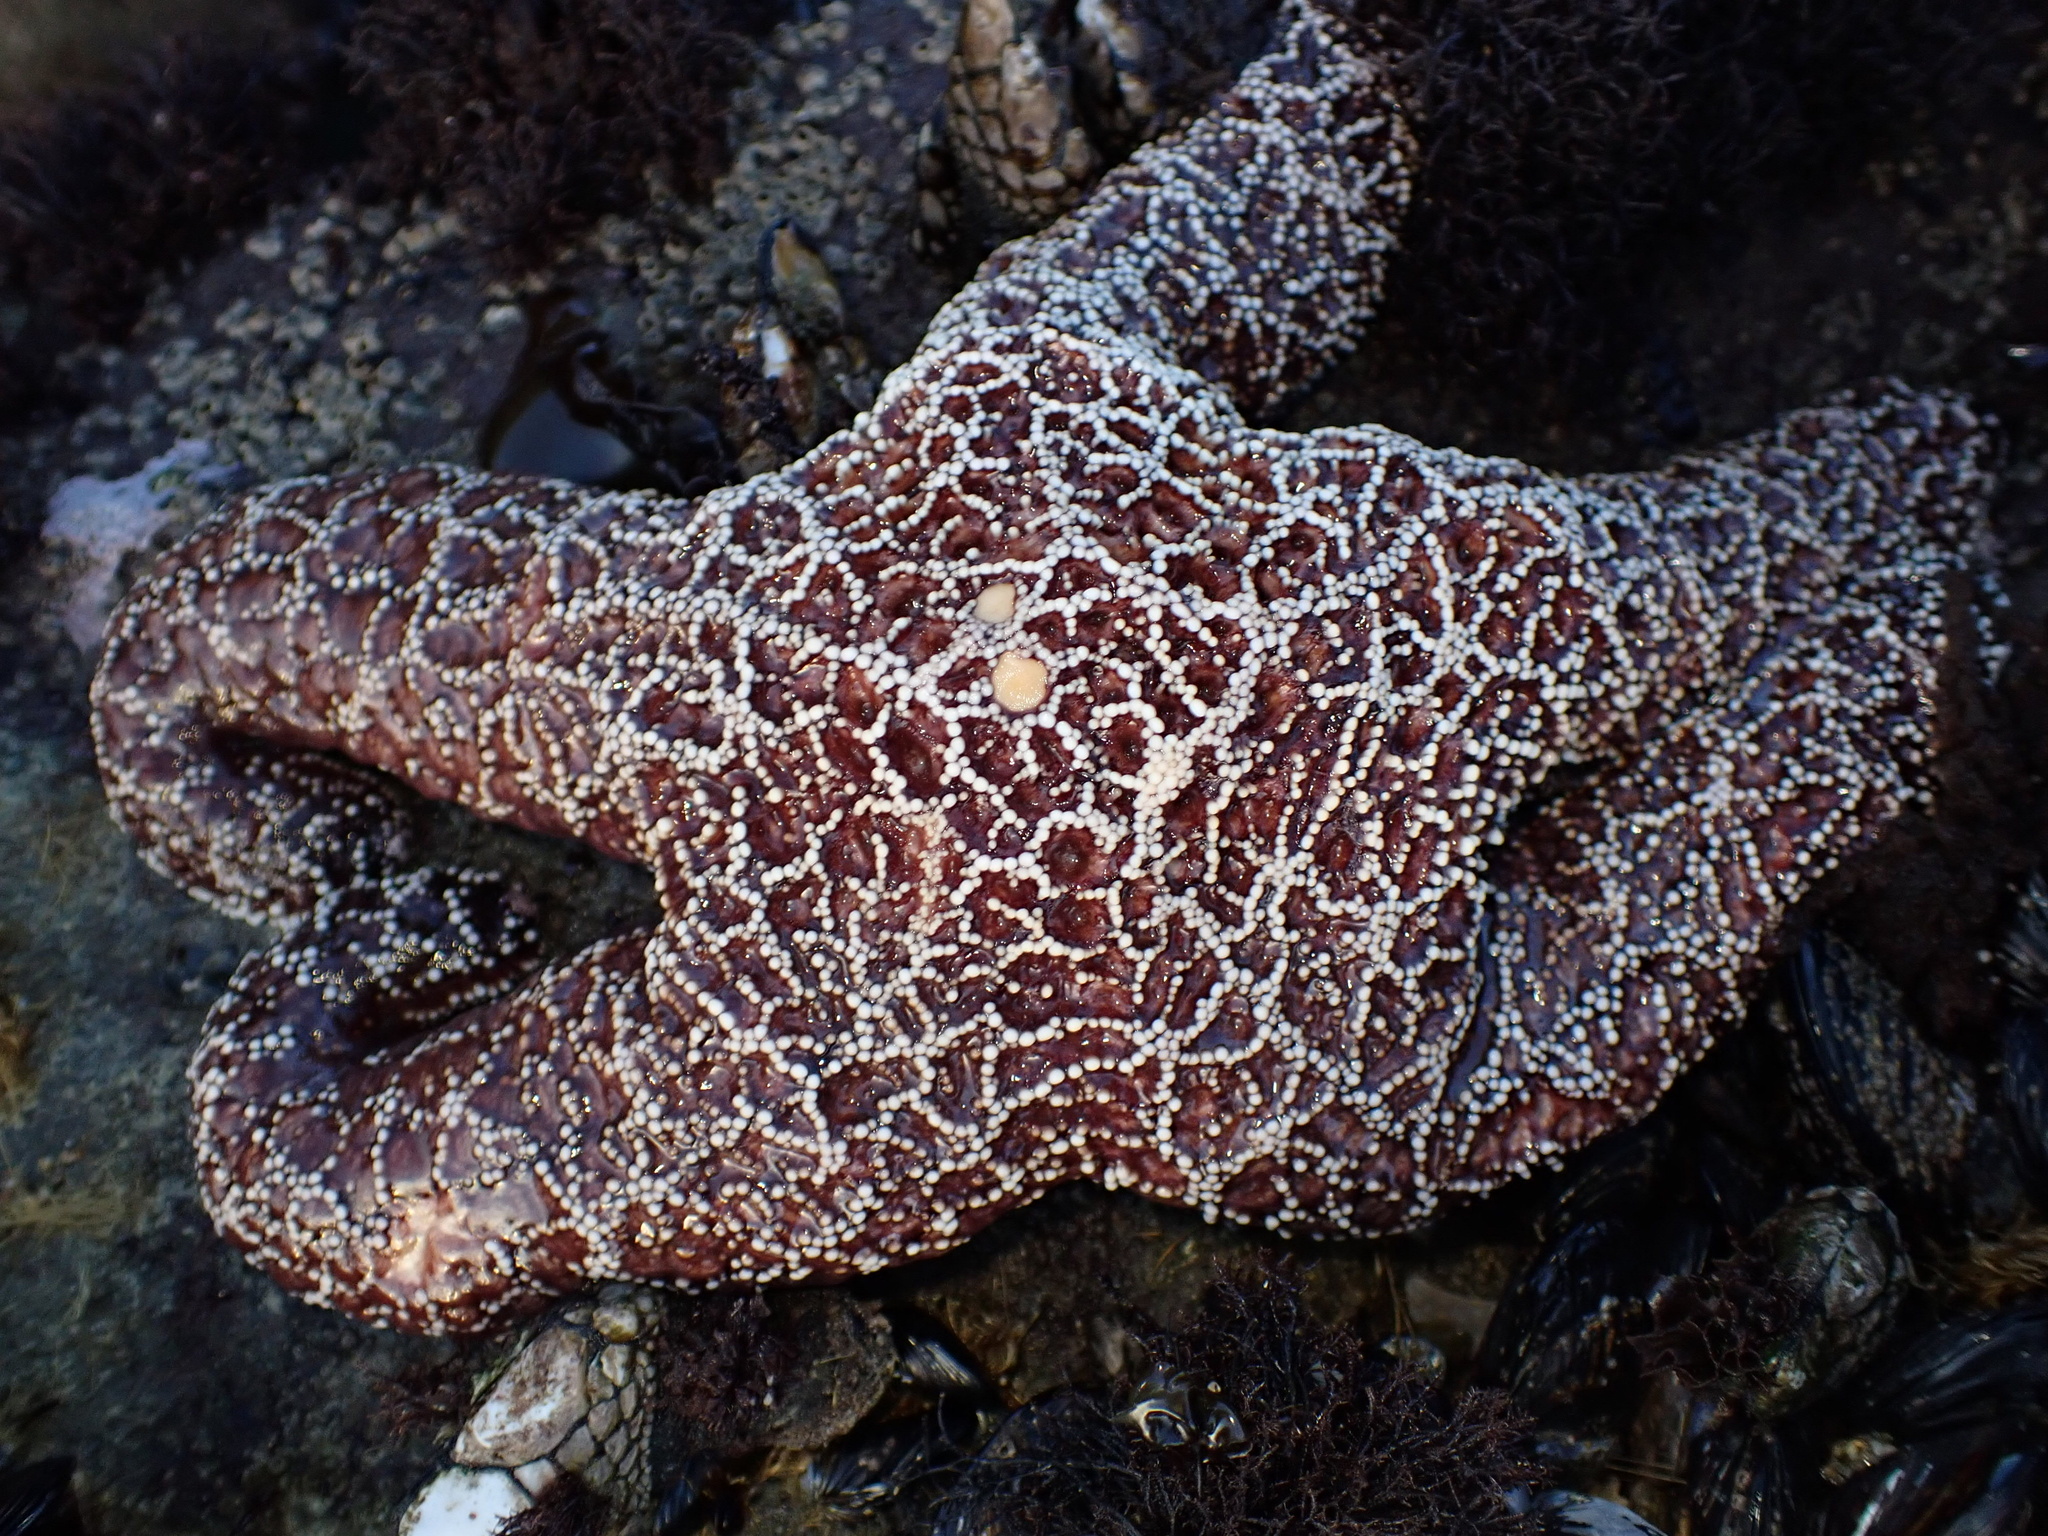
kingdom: Animalia
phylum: Echinodermata
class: Asteroidea
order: Forcipulatida
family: Asteriidae
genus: Pisaster
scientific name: Pisaster ochraceus
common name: Ochre stars
